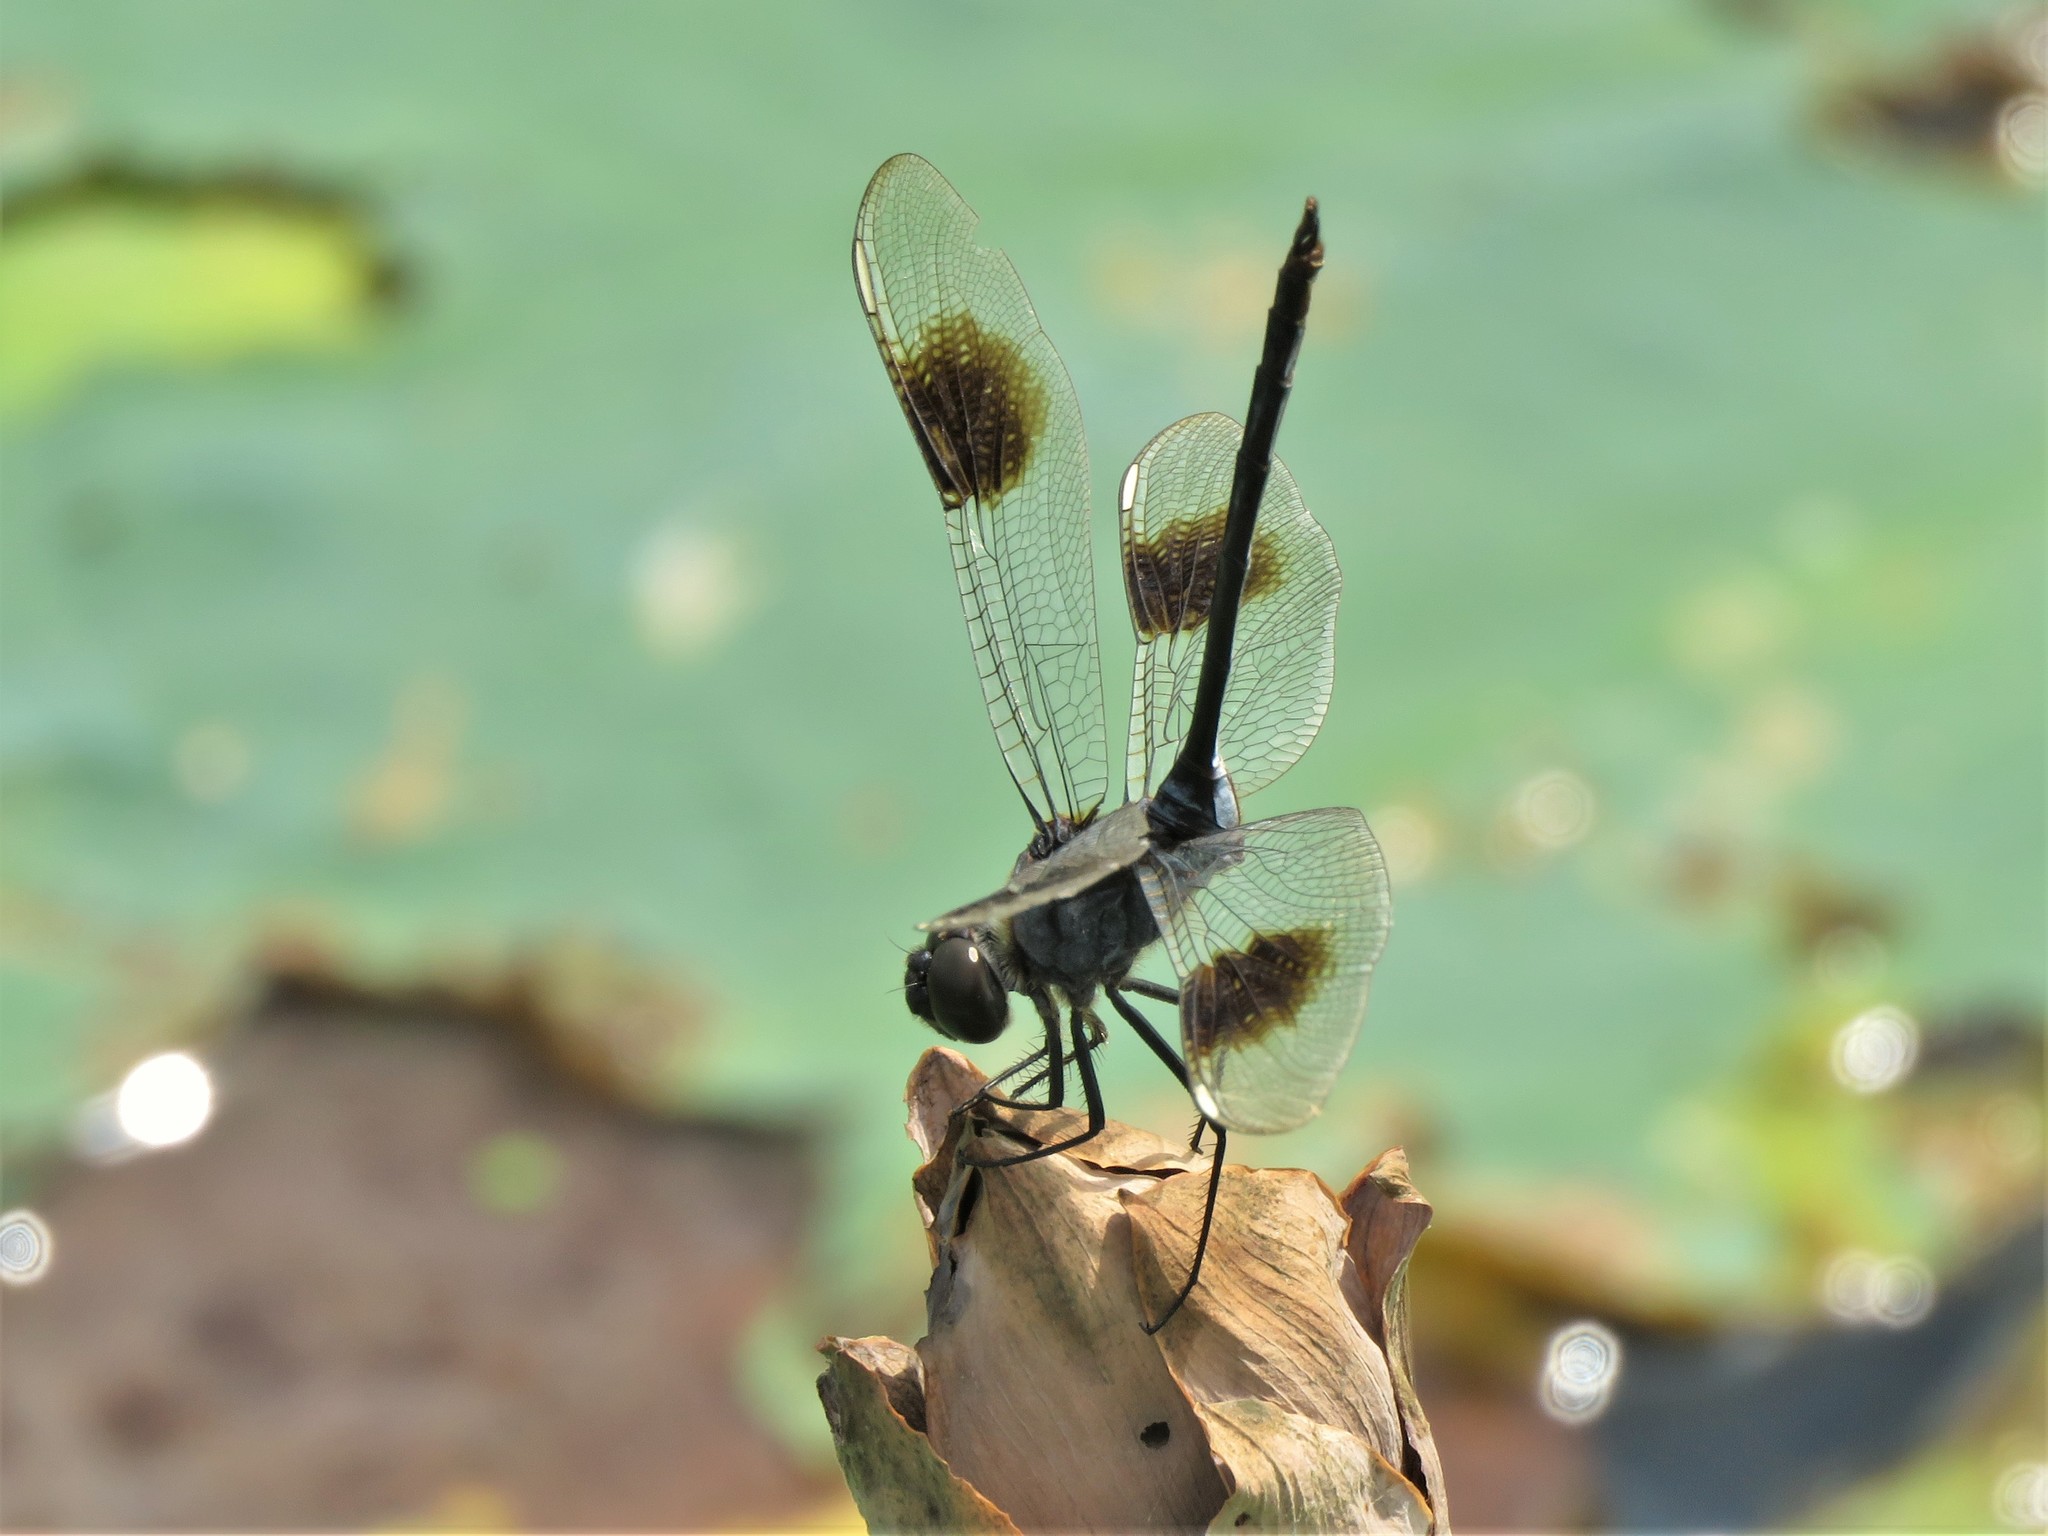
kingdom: Animalia
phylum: Arthropoda
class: Insecta
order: Odonata
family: Libellulidae
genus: Brachymesia
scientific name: Brachymesia gravida
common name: Four-spotted pennant
